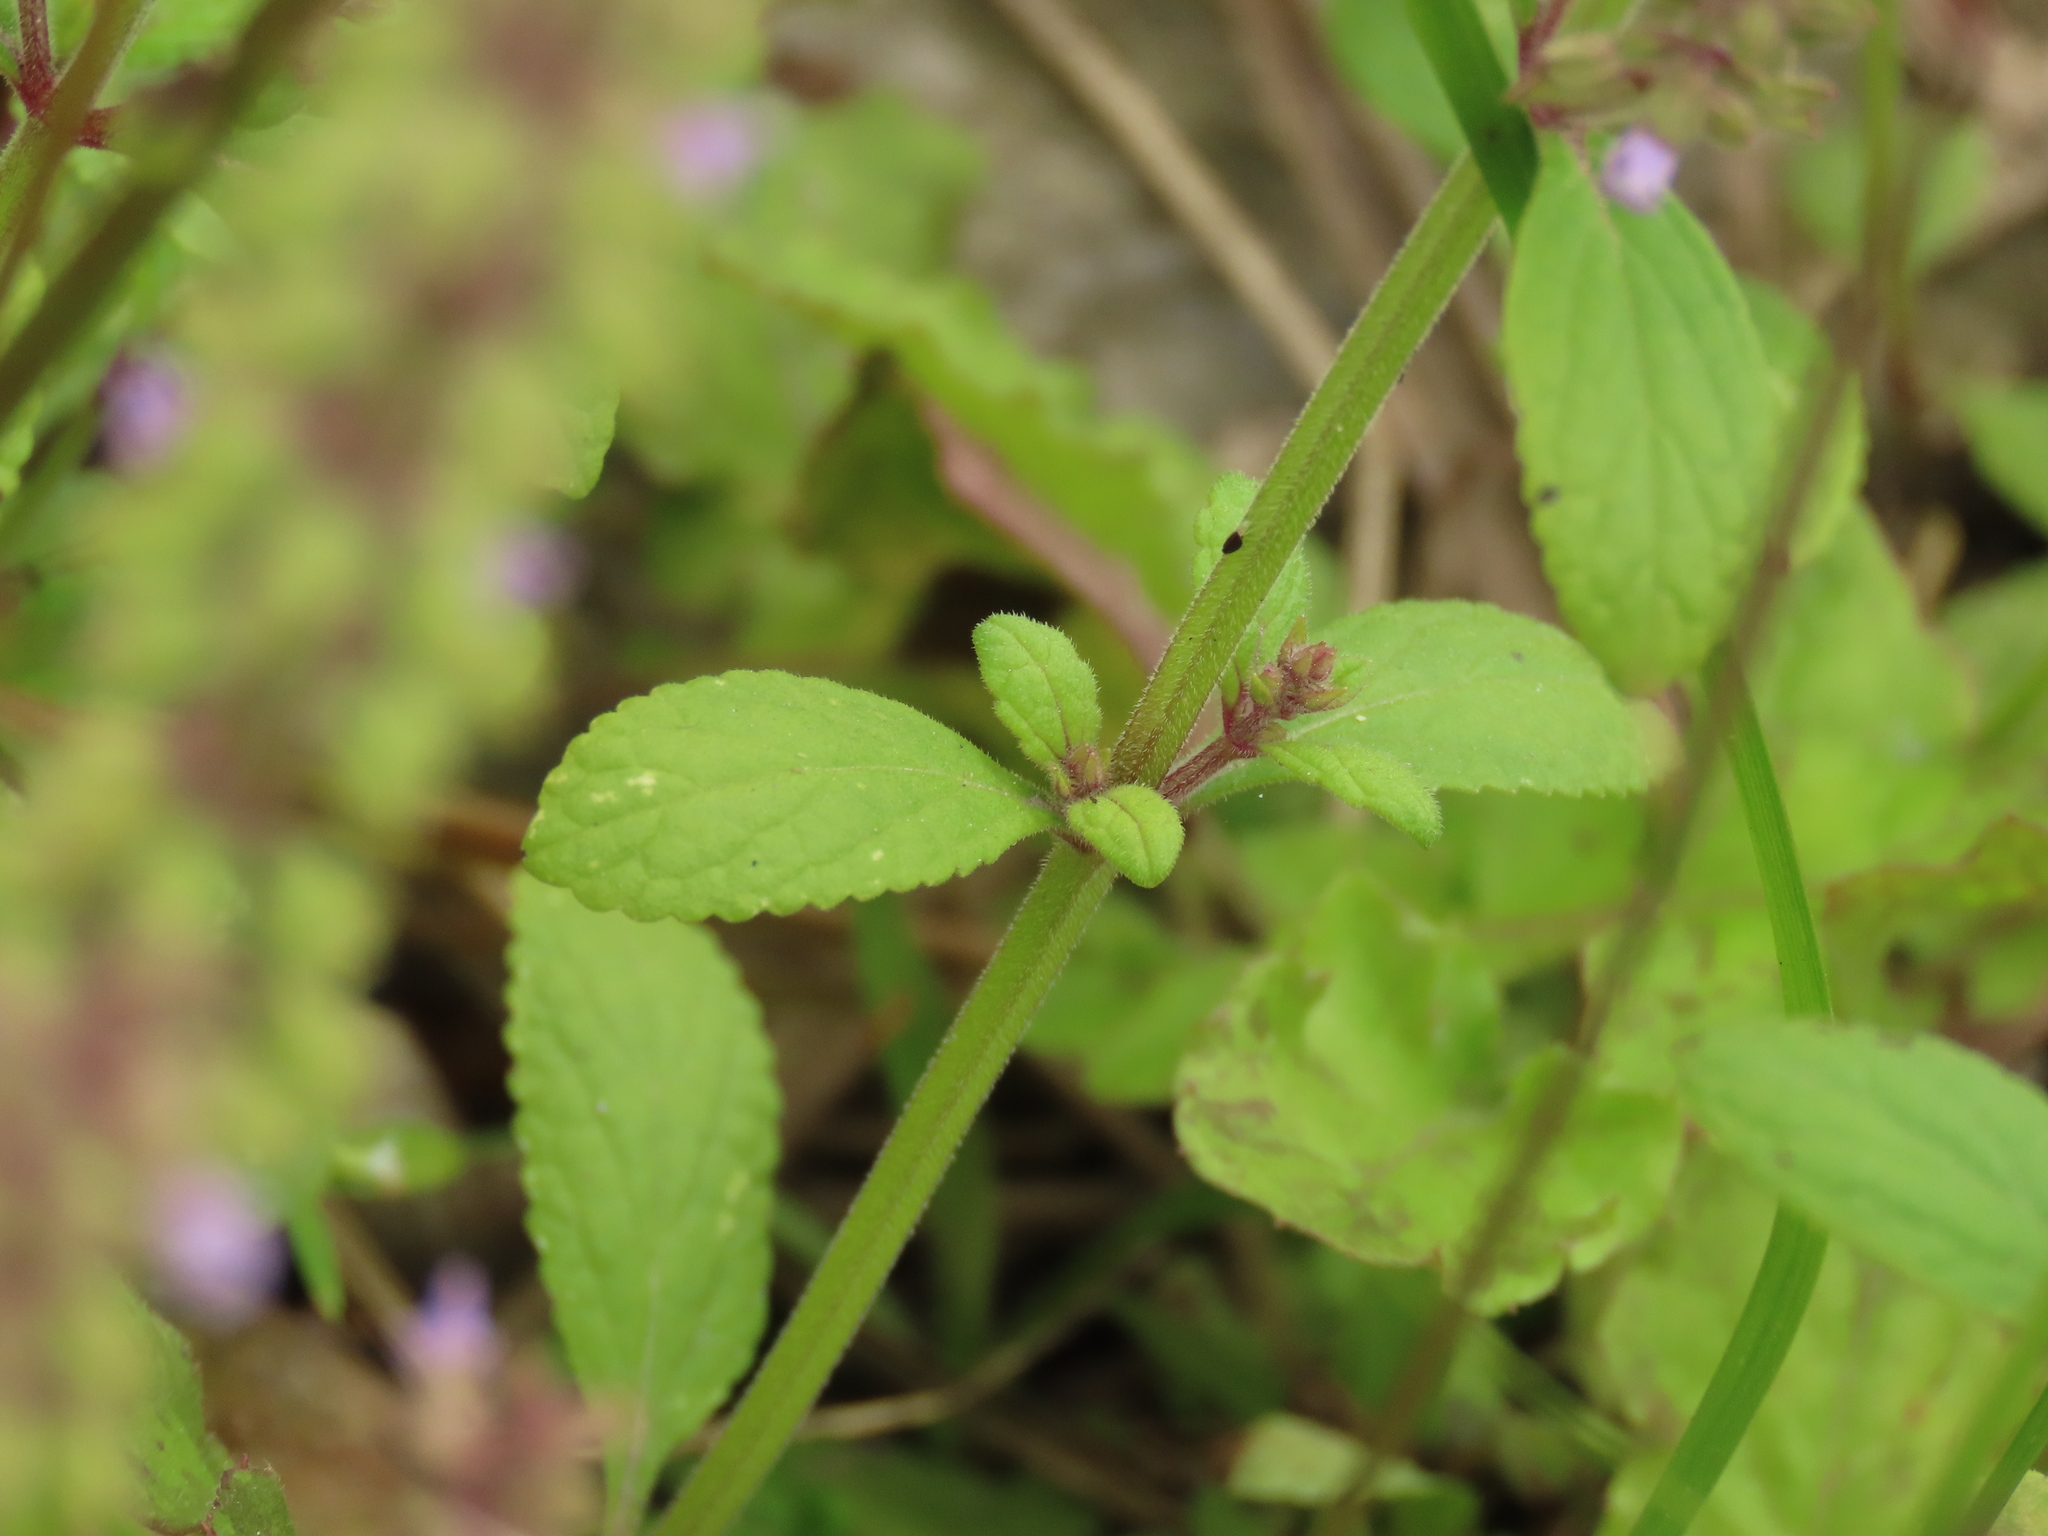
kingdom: Plantae
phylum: Tracheophyta
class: Magnoliopsida
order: Lamiales
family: Lamiaceae
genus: Salvia
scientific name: Salvia plebeia
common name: Australian sage
